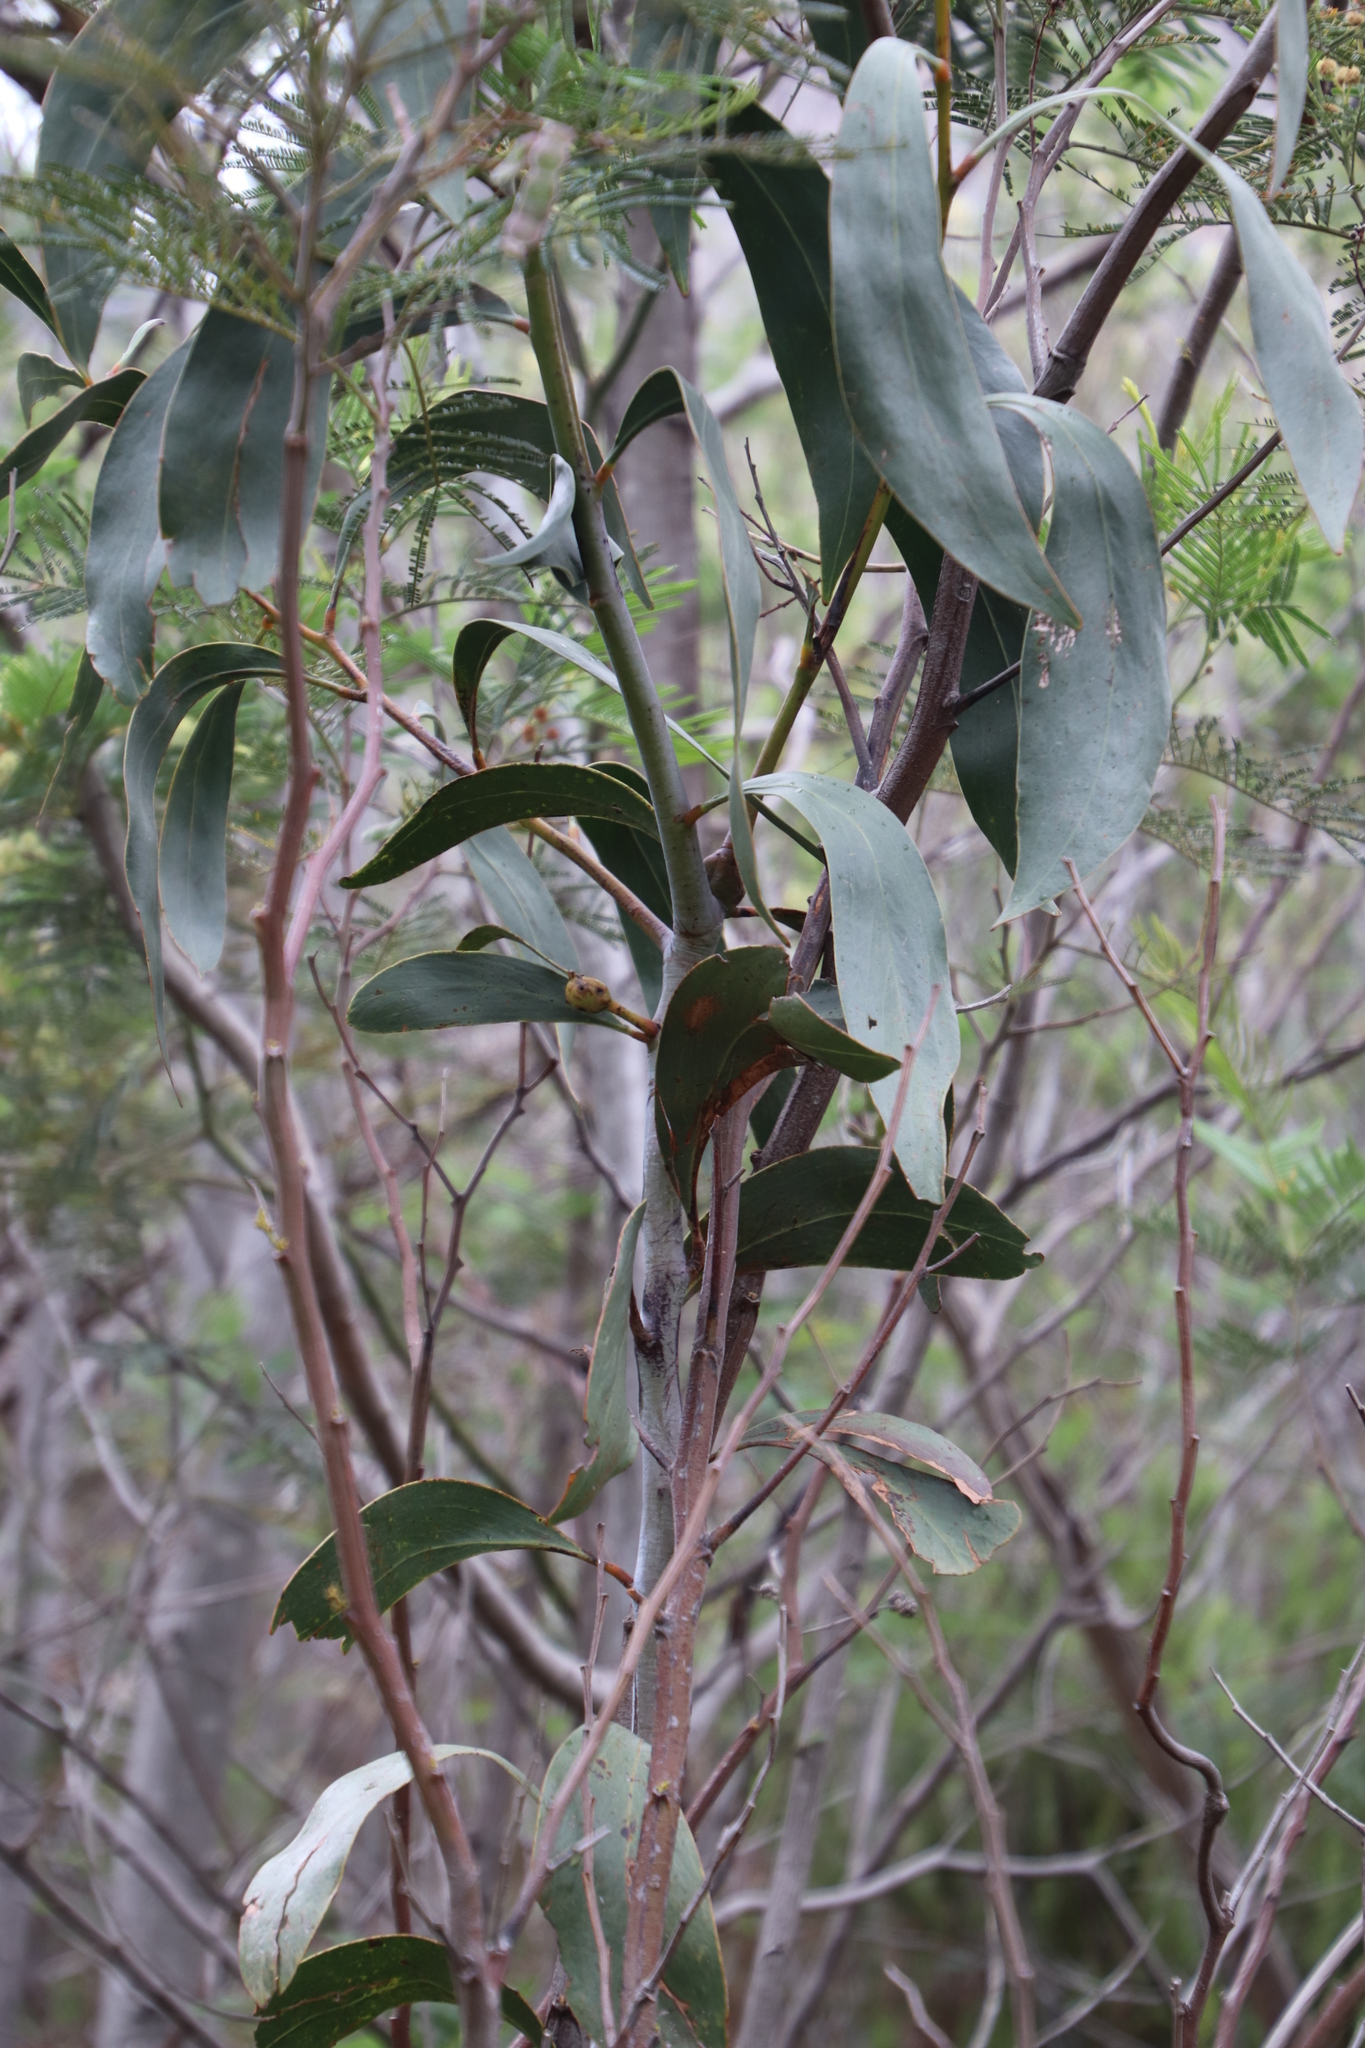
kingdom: Plantae
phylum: Tracheophyta
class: Magnoliopsida
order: Fabales
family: Fabaceae
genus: Acacia
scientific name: Acacia pycnantha
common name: Golden wattle
